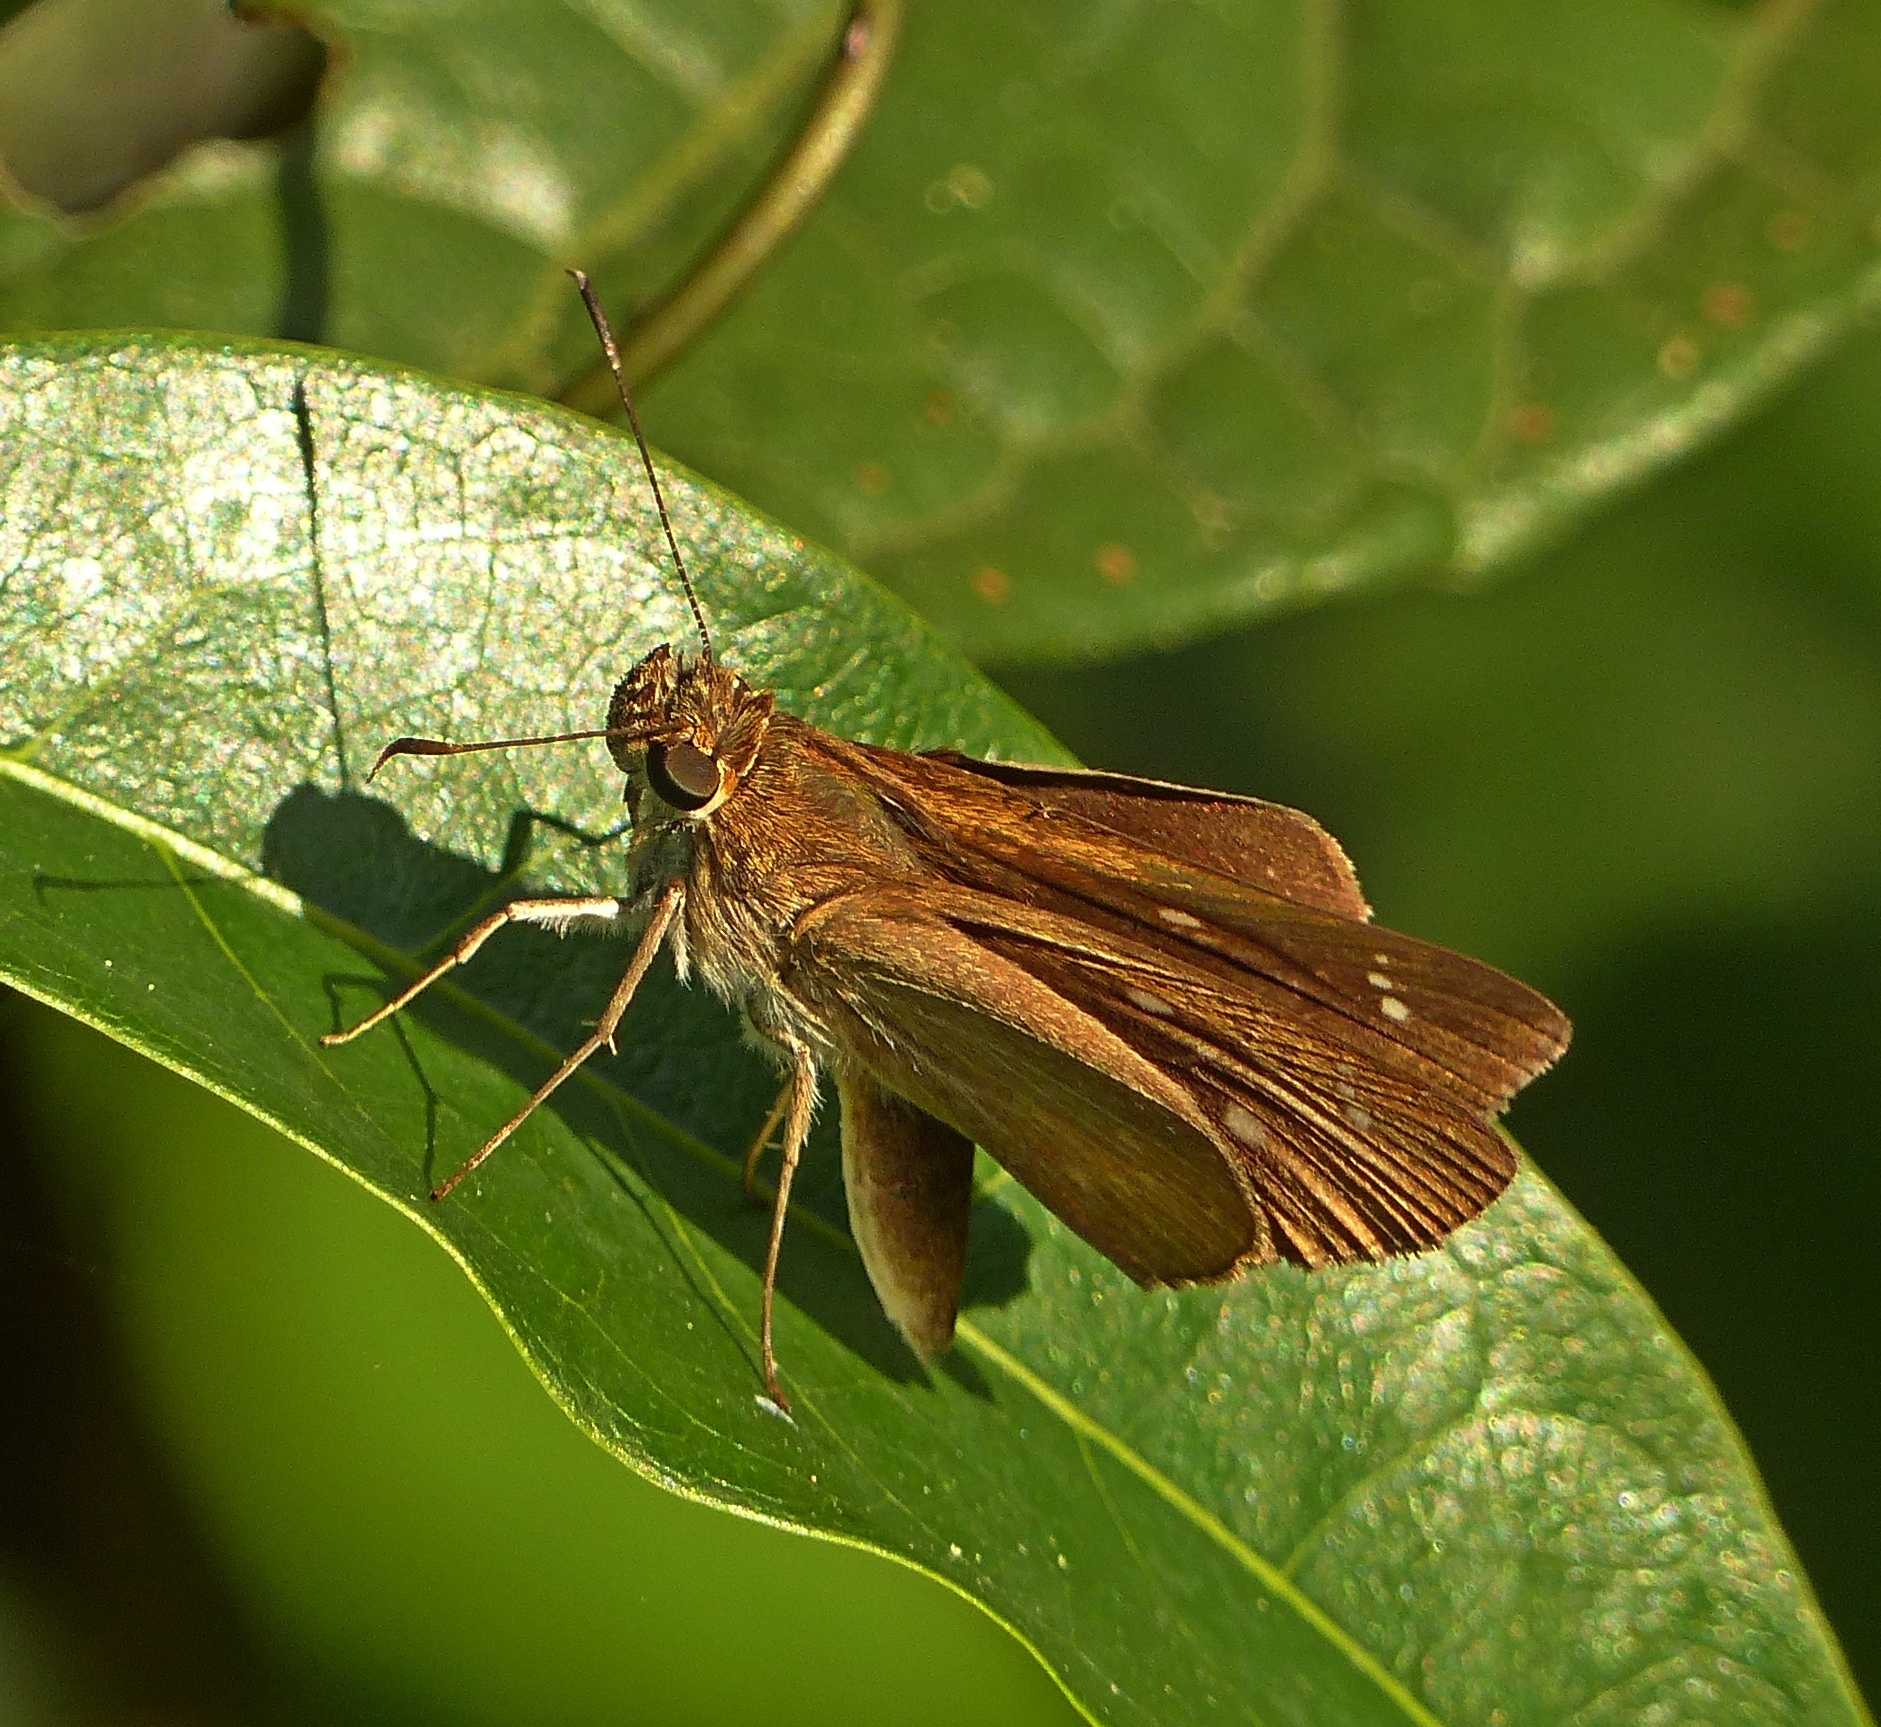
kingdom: Animalia
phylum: Arthropoda
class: Insecta
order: Lepidoptera
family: Hesperiidae
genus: Cobalopsis
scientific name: Cobalopsis nero
